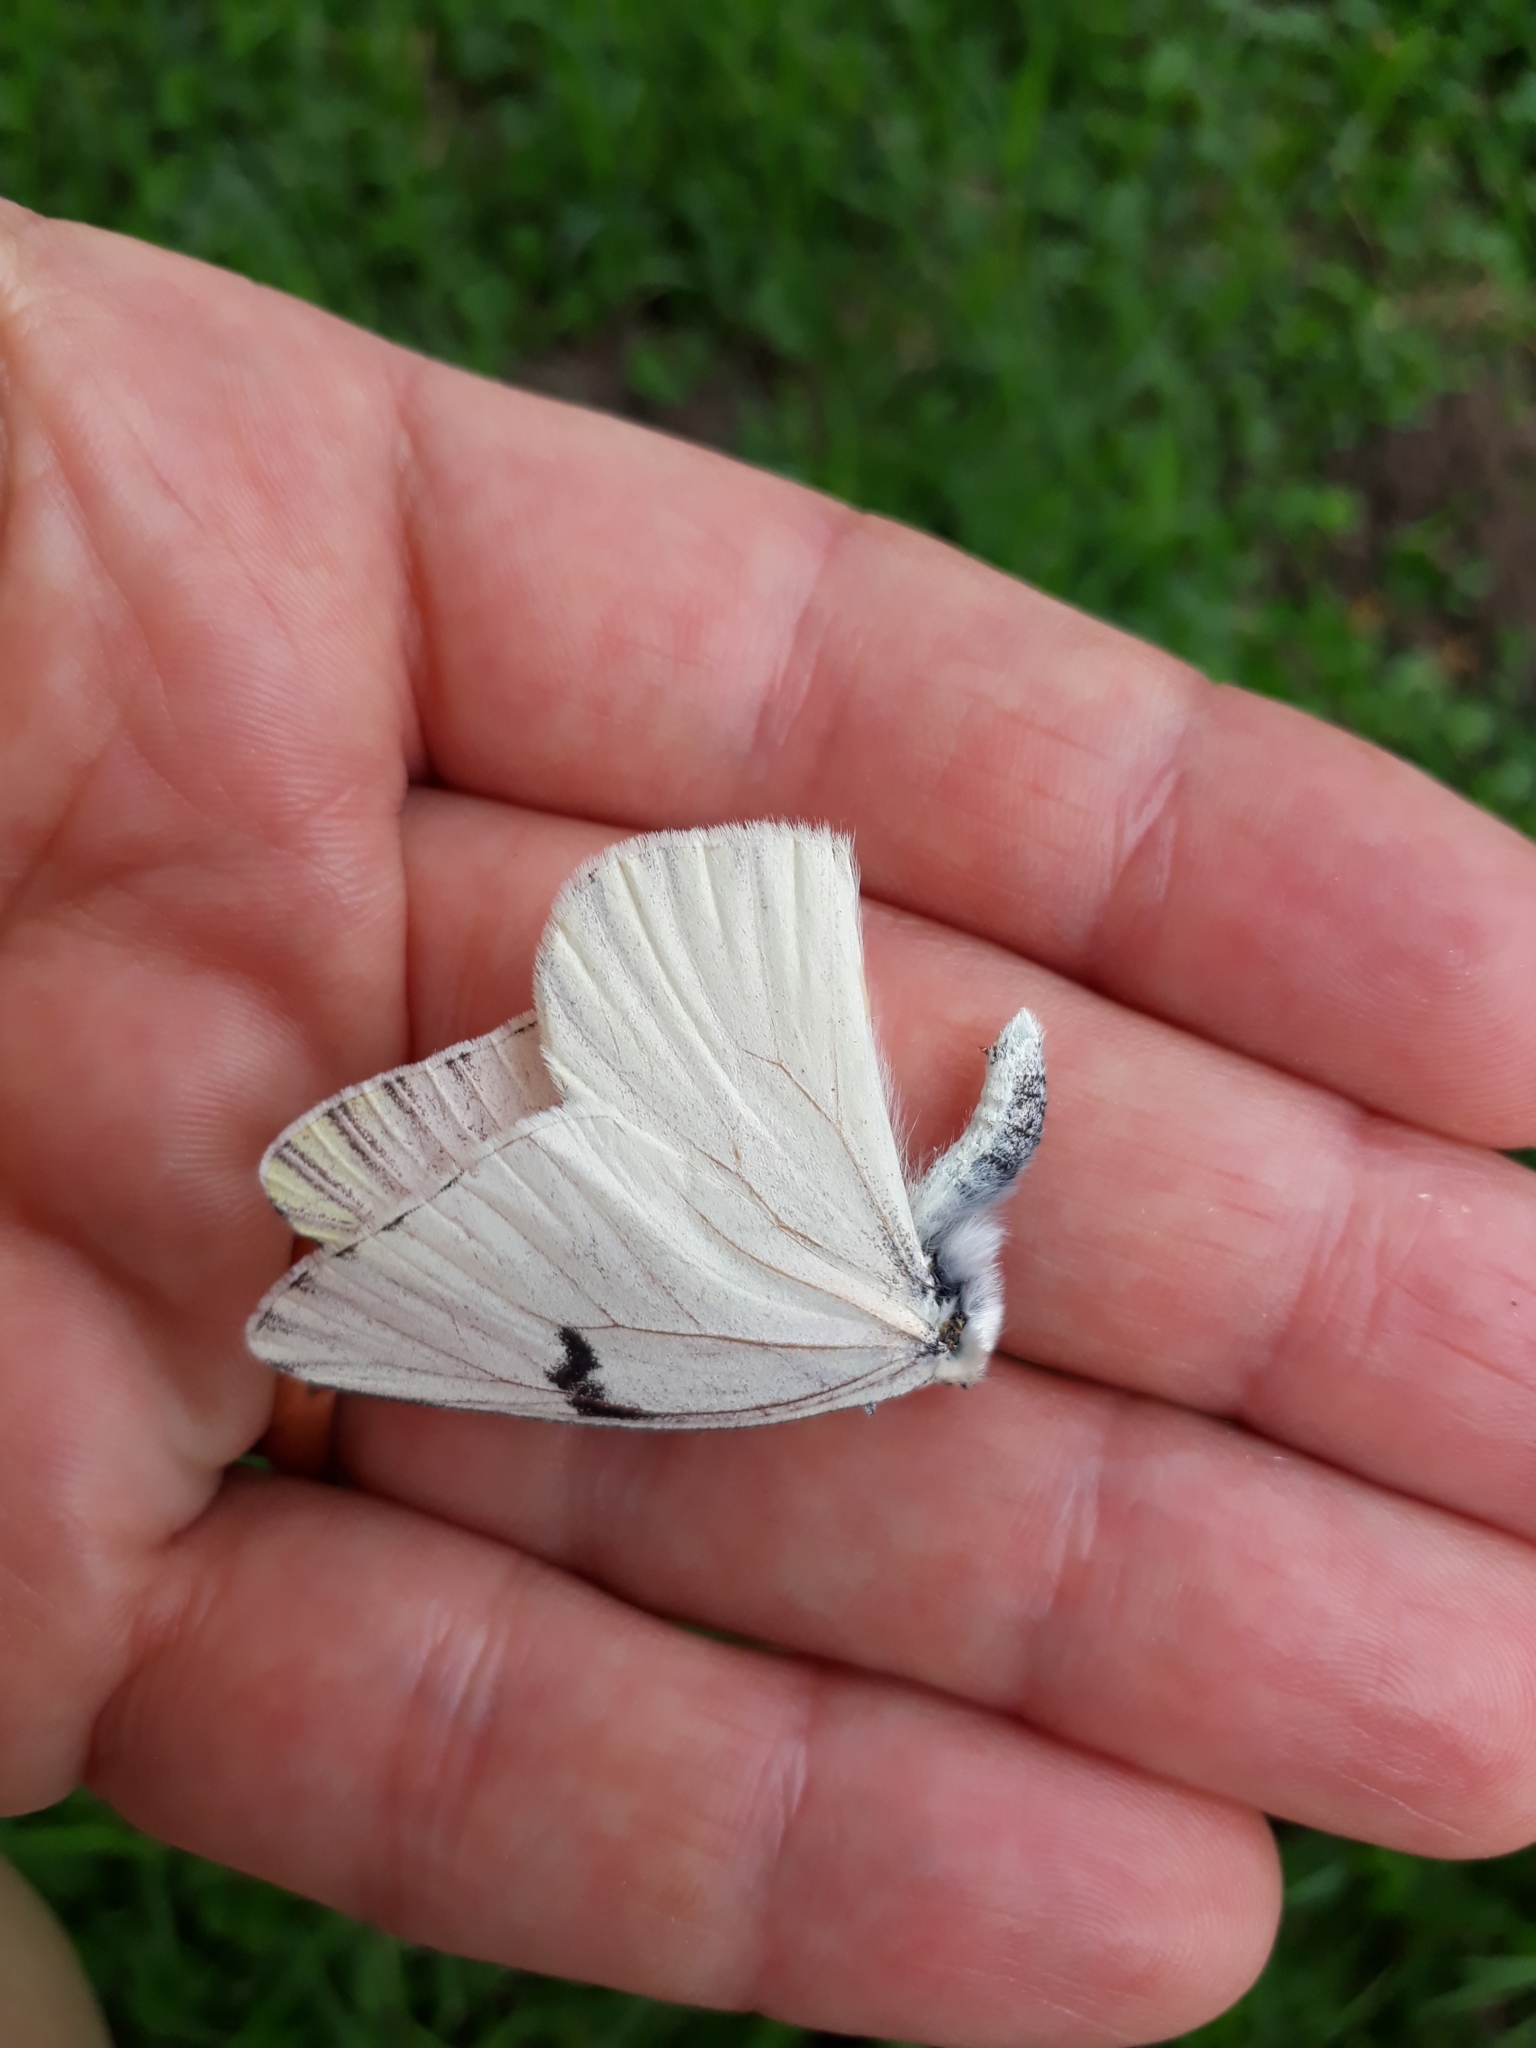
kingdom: Animalia
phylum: Arthropoda
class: Insecta
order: Lepidoptera
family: Pieridae
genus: Tatochila
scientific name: Tatochila mercedis
